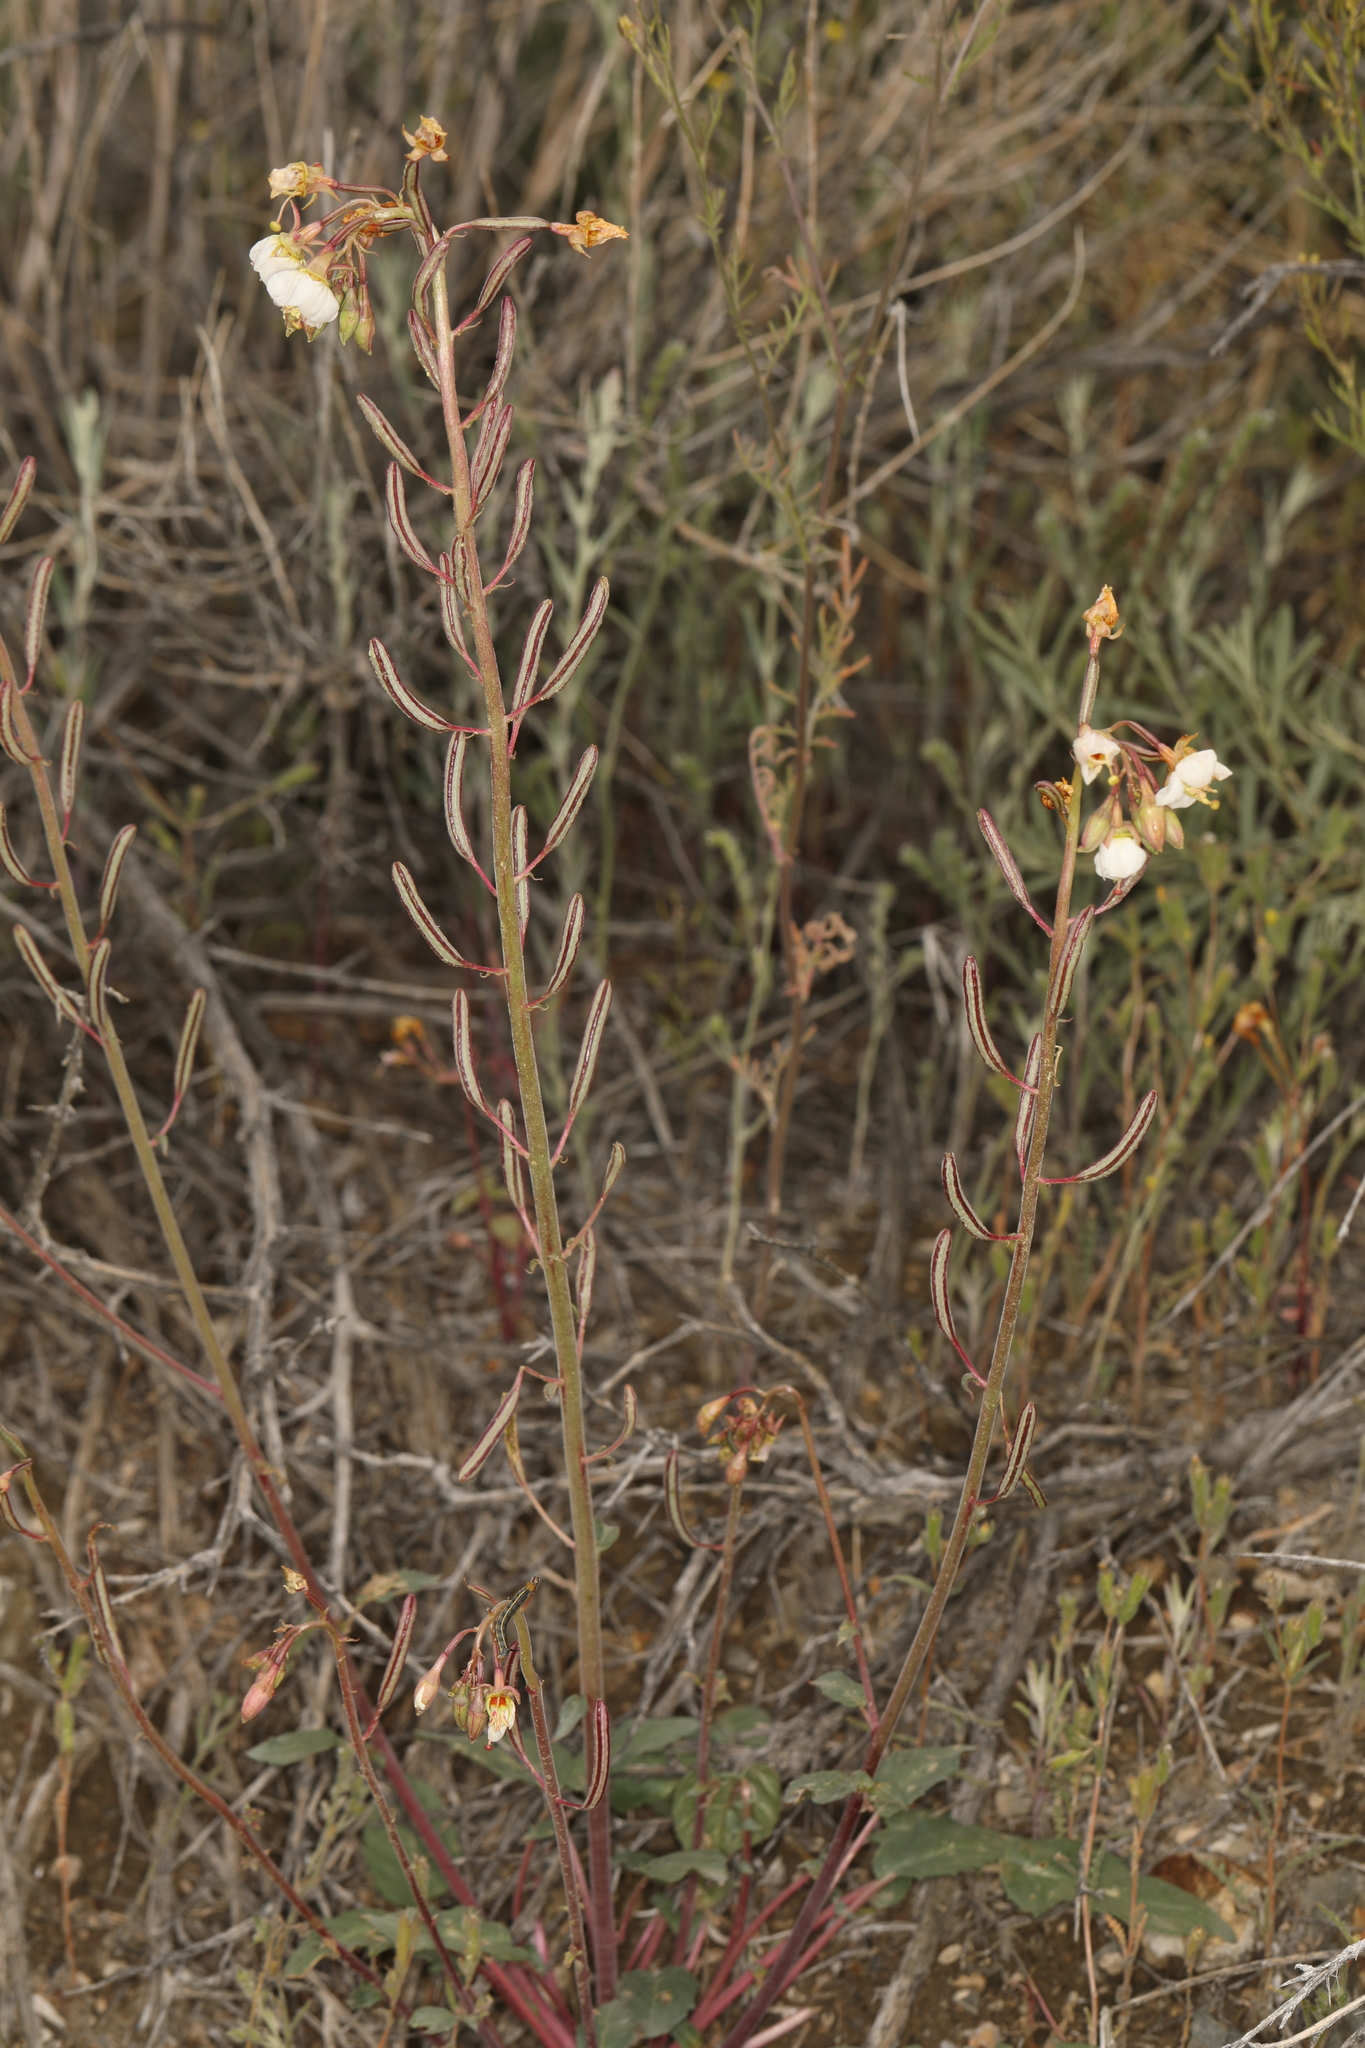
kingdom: Plantae
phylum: Tracheophyta
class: Magnoliopsida
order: Myrtales
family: Onagraceae
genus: Chylismia
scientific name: Chylismia claviformis
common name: Browneyes
